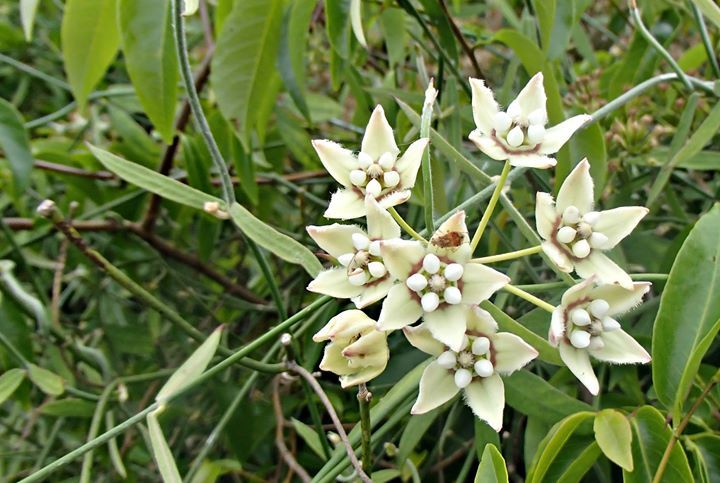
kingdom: Plantae
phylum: Tracheophyta
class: Magnoliopsida
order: Gentianales
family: Apocynaceae
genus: Funastrum
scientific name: Funastrum clausum
